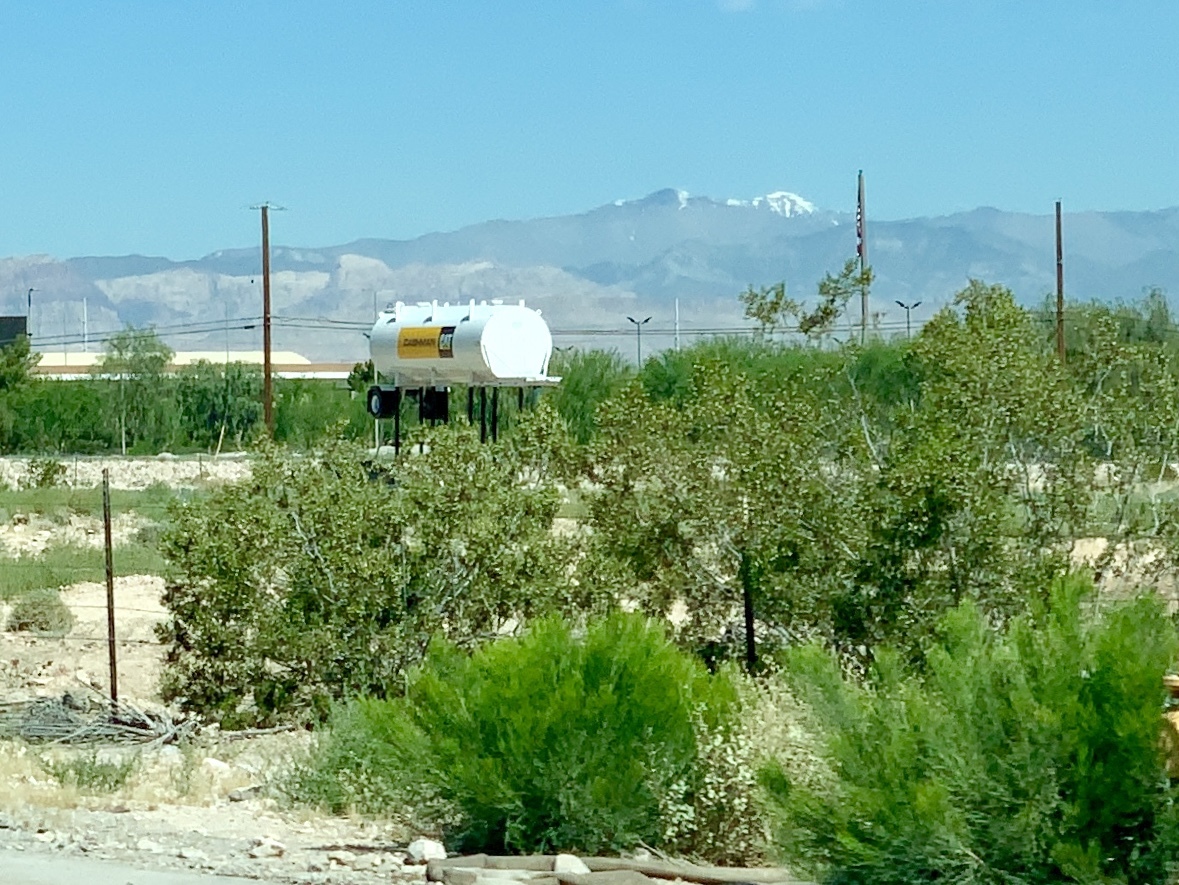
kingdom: Plantae
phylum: Tracheophyta
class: Magnoliopsida
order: Zygophyllales
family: Zygophyllaceae
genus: Larrea
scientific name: Larrea tridentata
